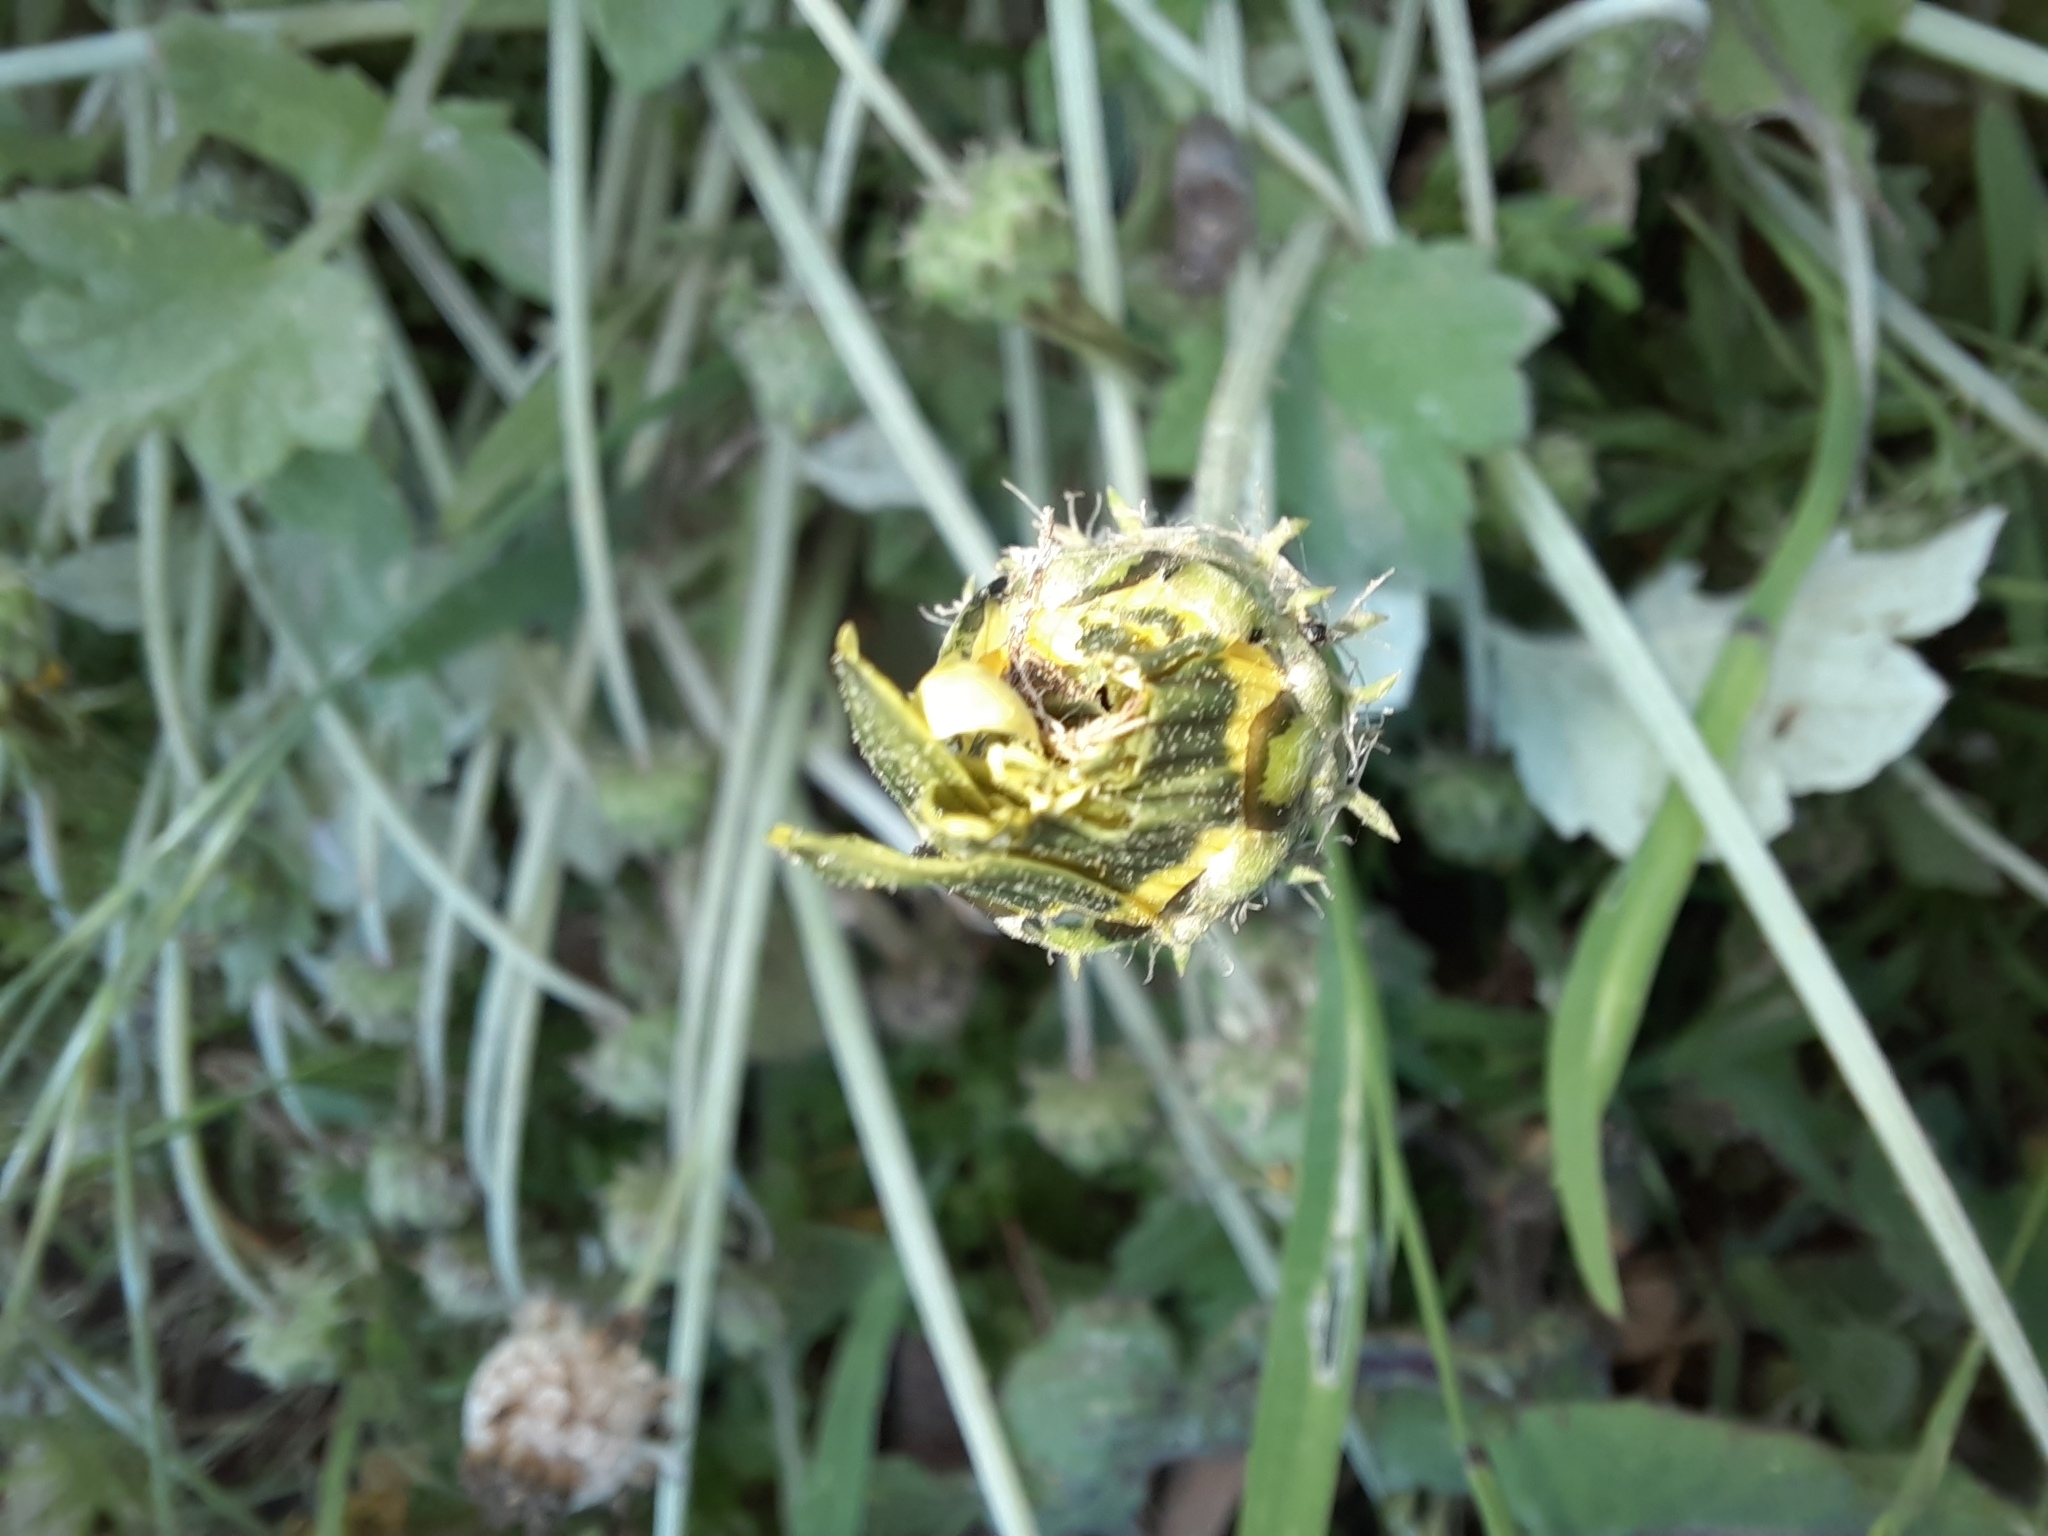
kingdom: Plantae
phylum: Tracheophyta
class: Magnoliopsida
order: Asterales
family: Asteraceae
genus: Arctotheca
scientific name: Arctotheca calendula
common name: Capeweed
